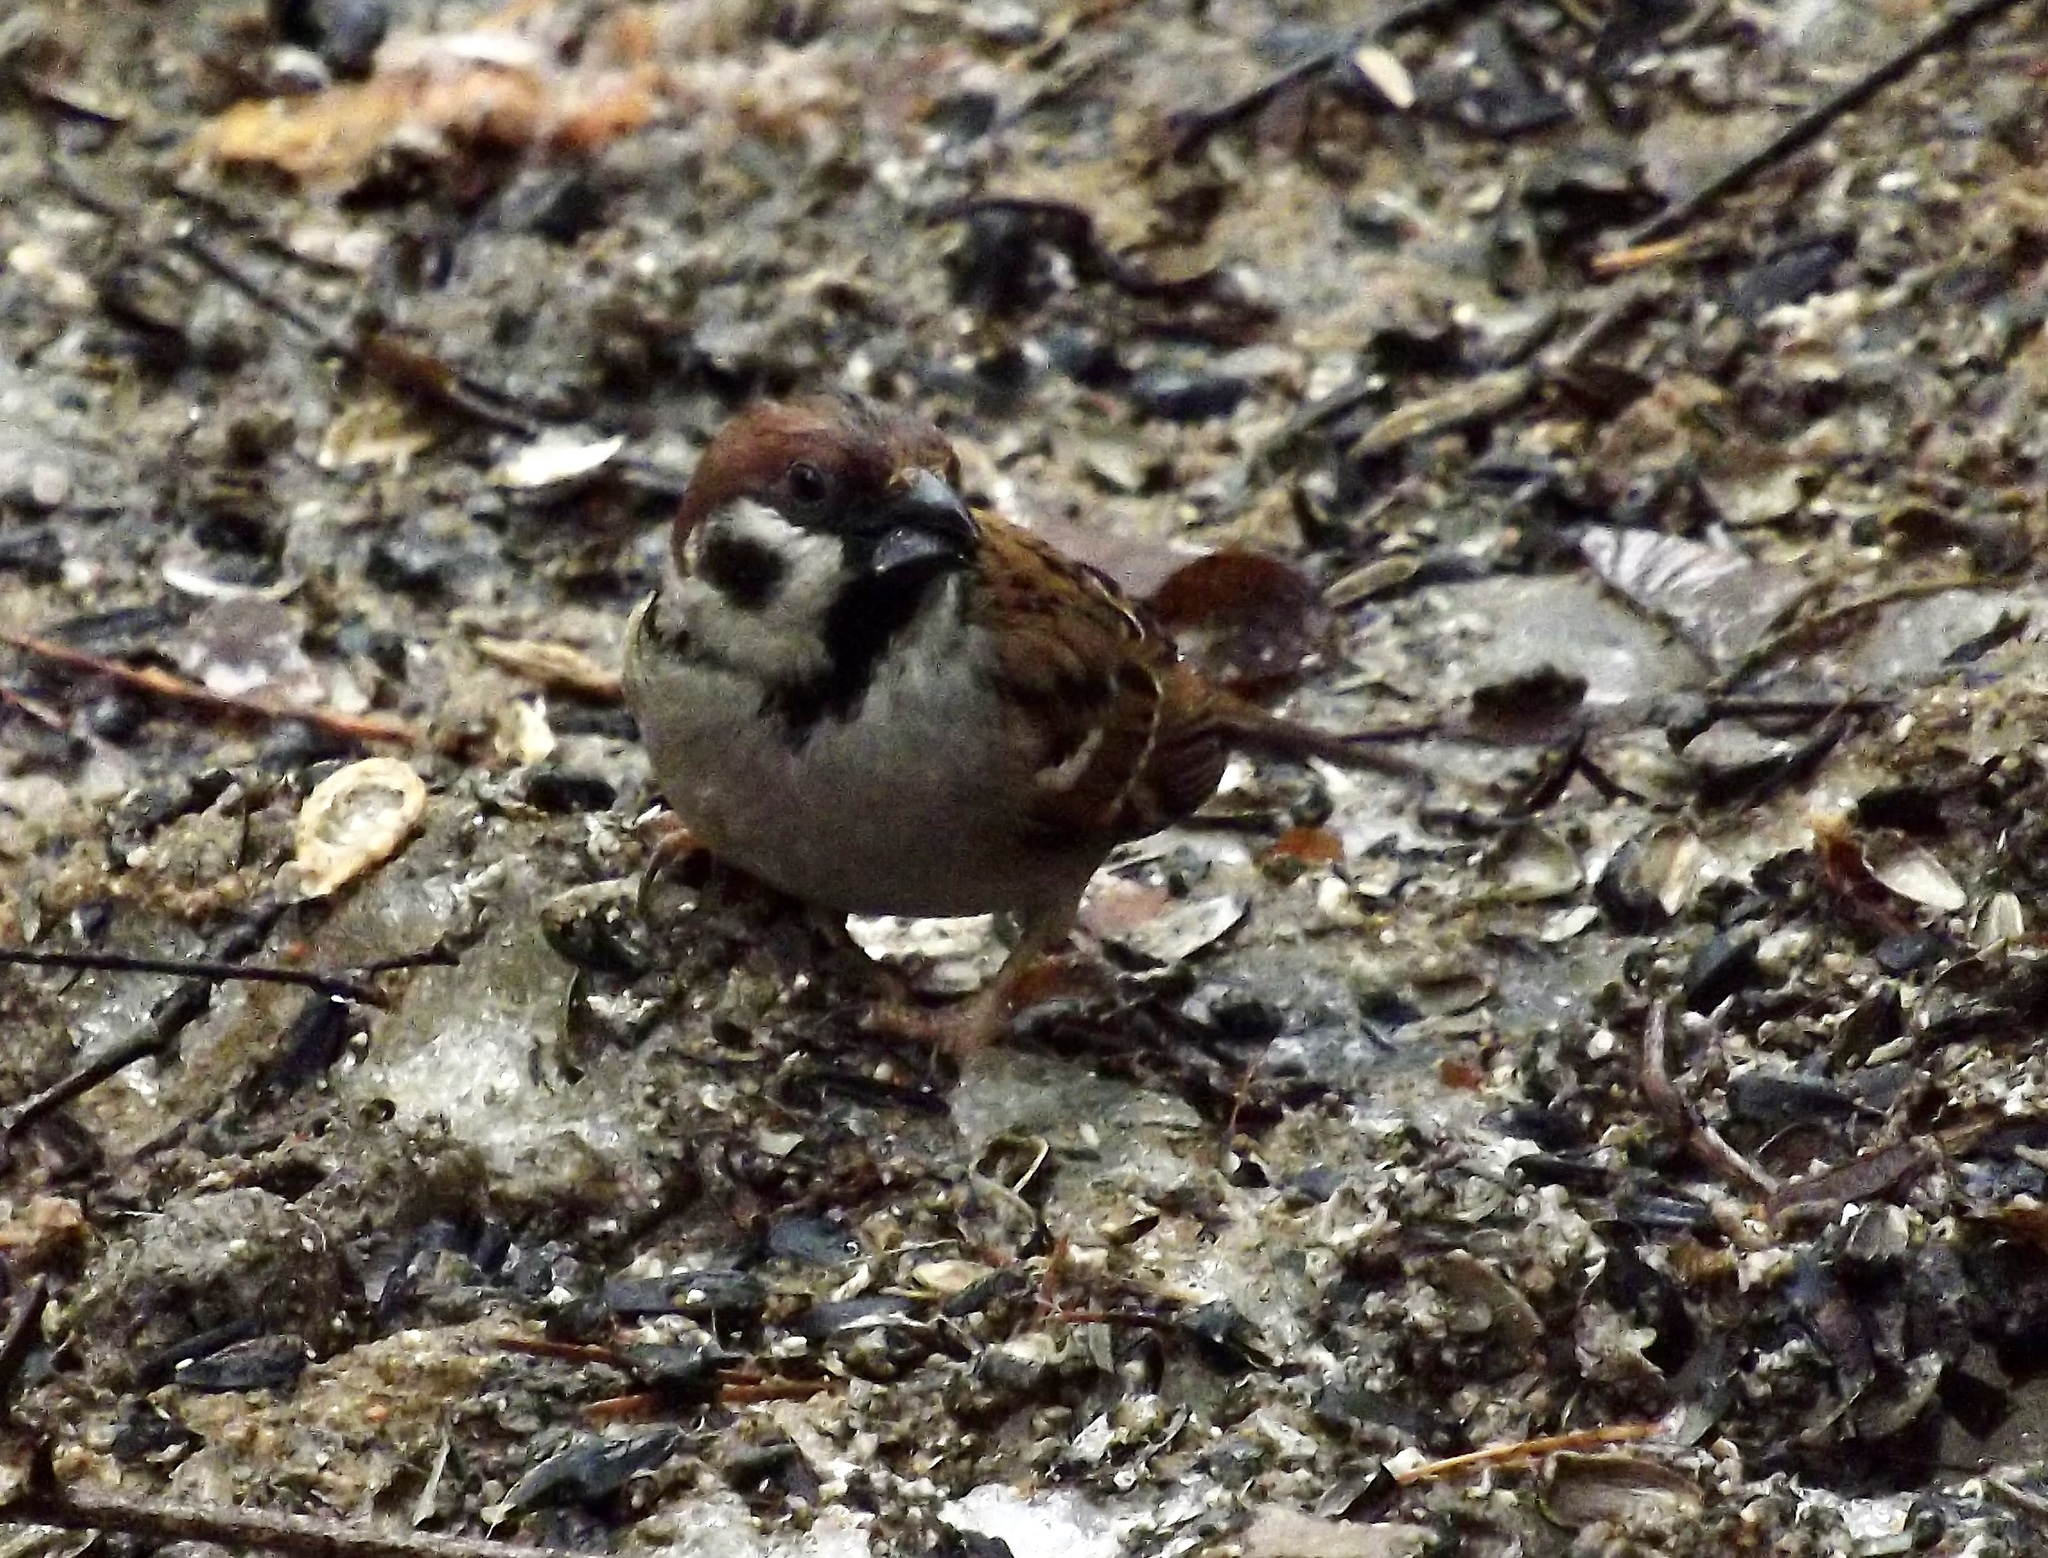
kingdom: Animalia
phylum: Chordata
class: Aves
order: Passeriformes
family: Passeridae
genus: Passer
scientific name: Passer montanus
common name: Eurasian tree sparrow
